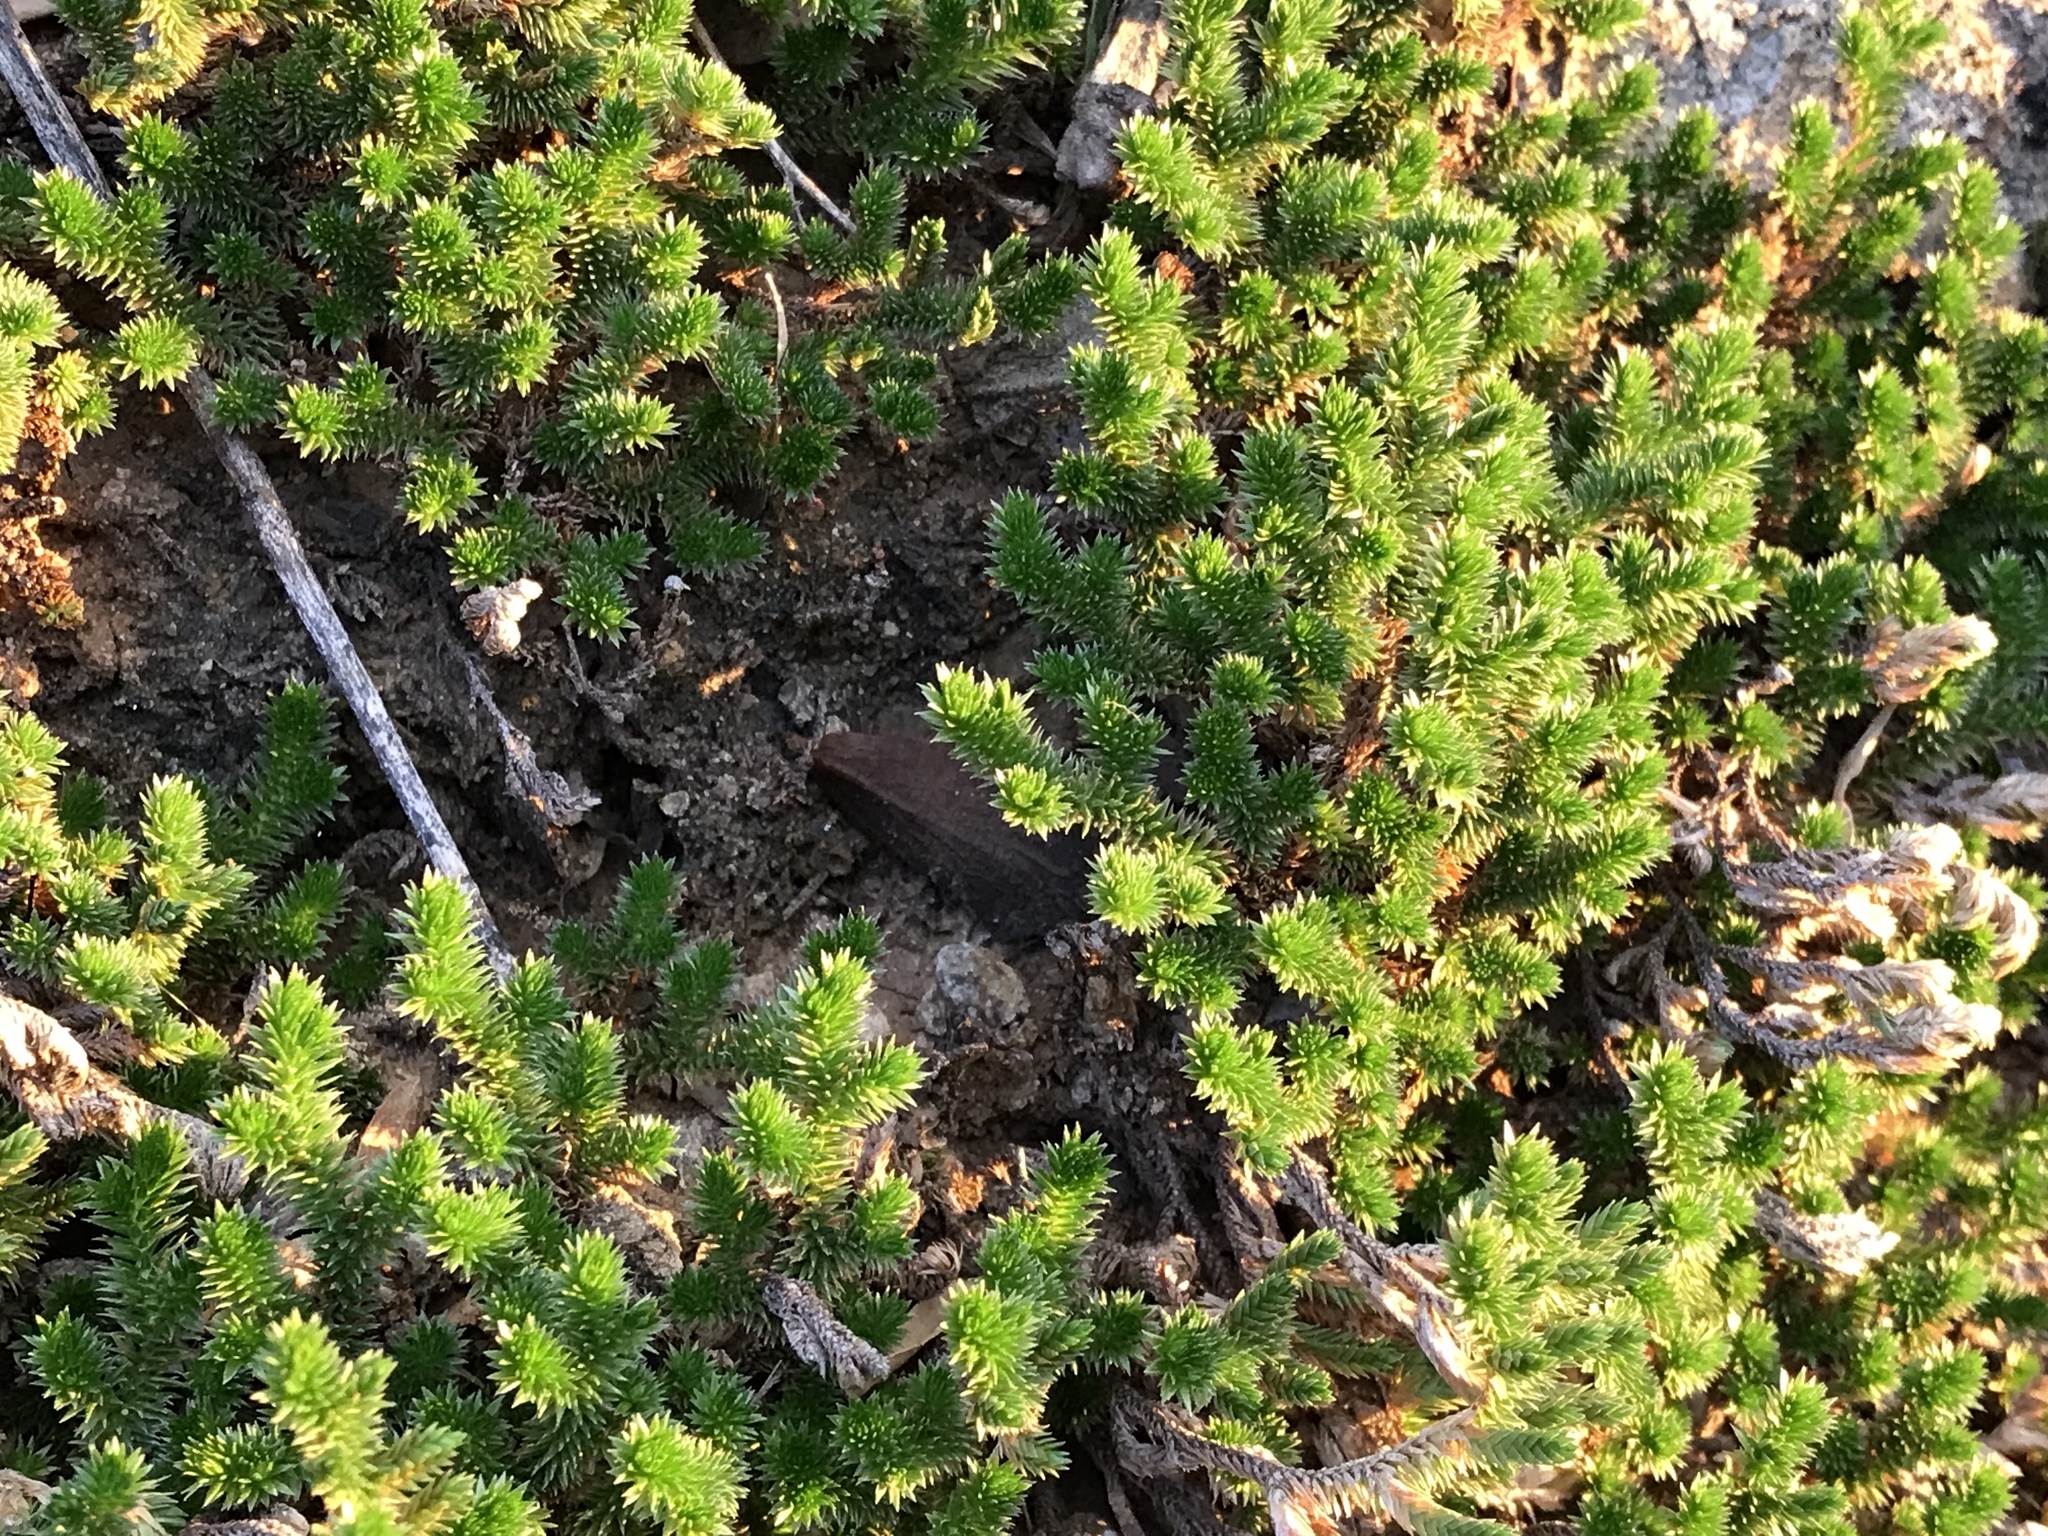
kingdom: Plantae
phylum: Tracheophyta
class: Lycopodiopsida
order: Selaginellales
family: Selaginellaceae
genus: Selaginella
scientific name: Selaginella arizonica
